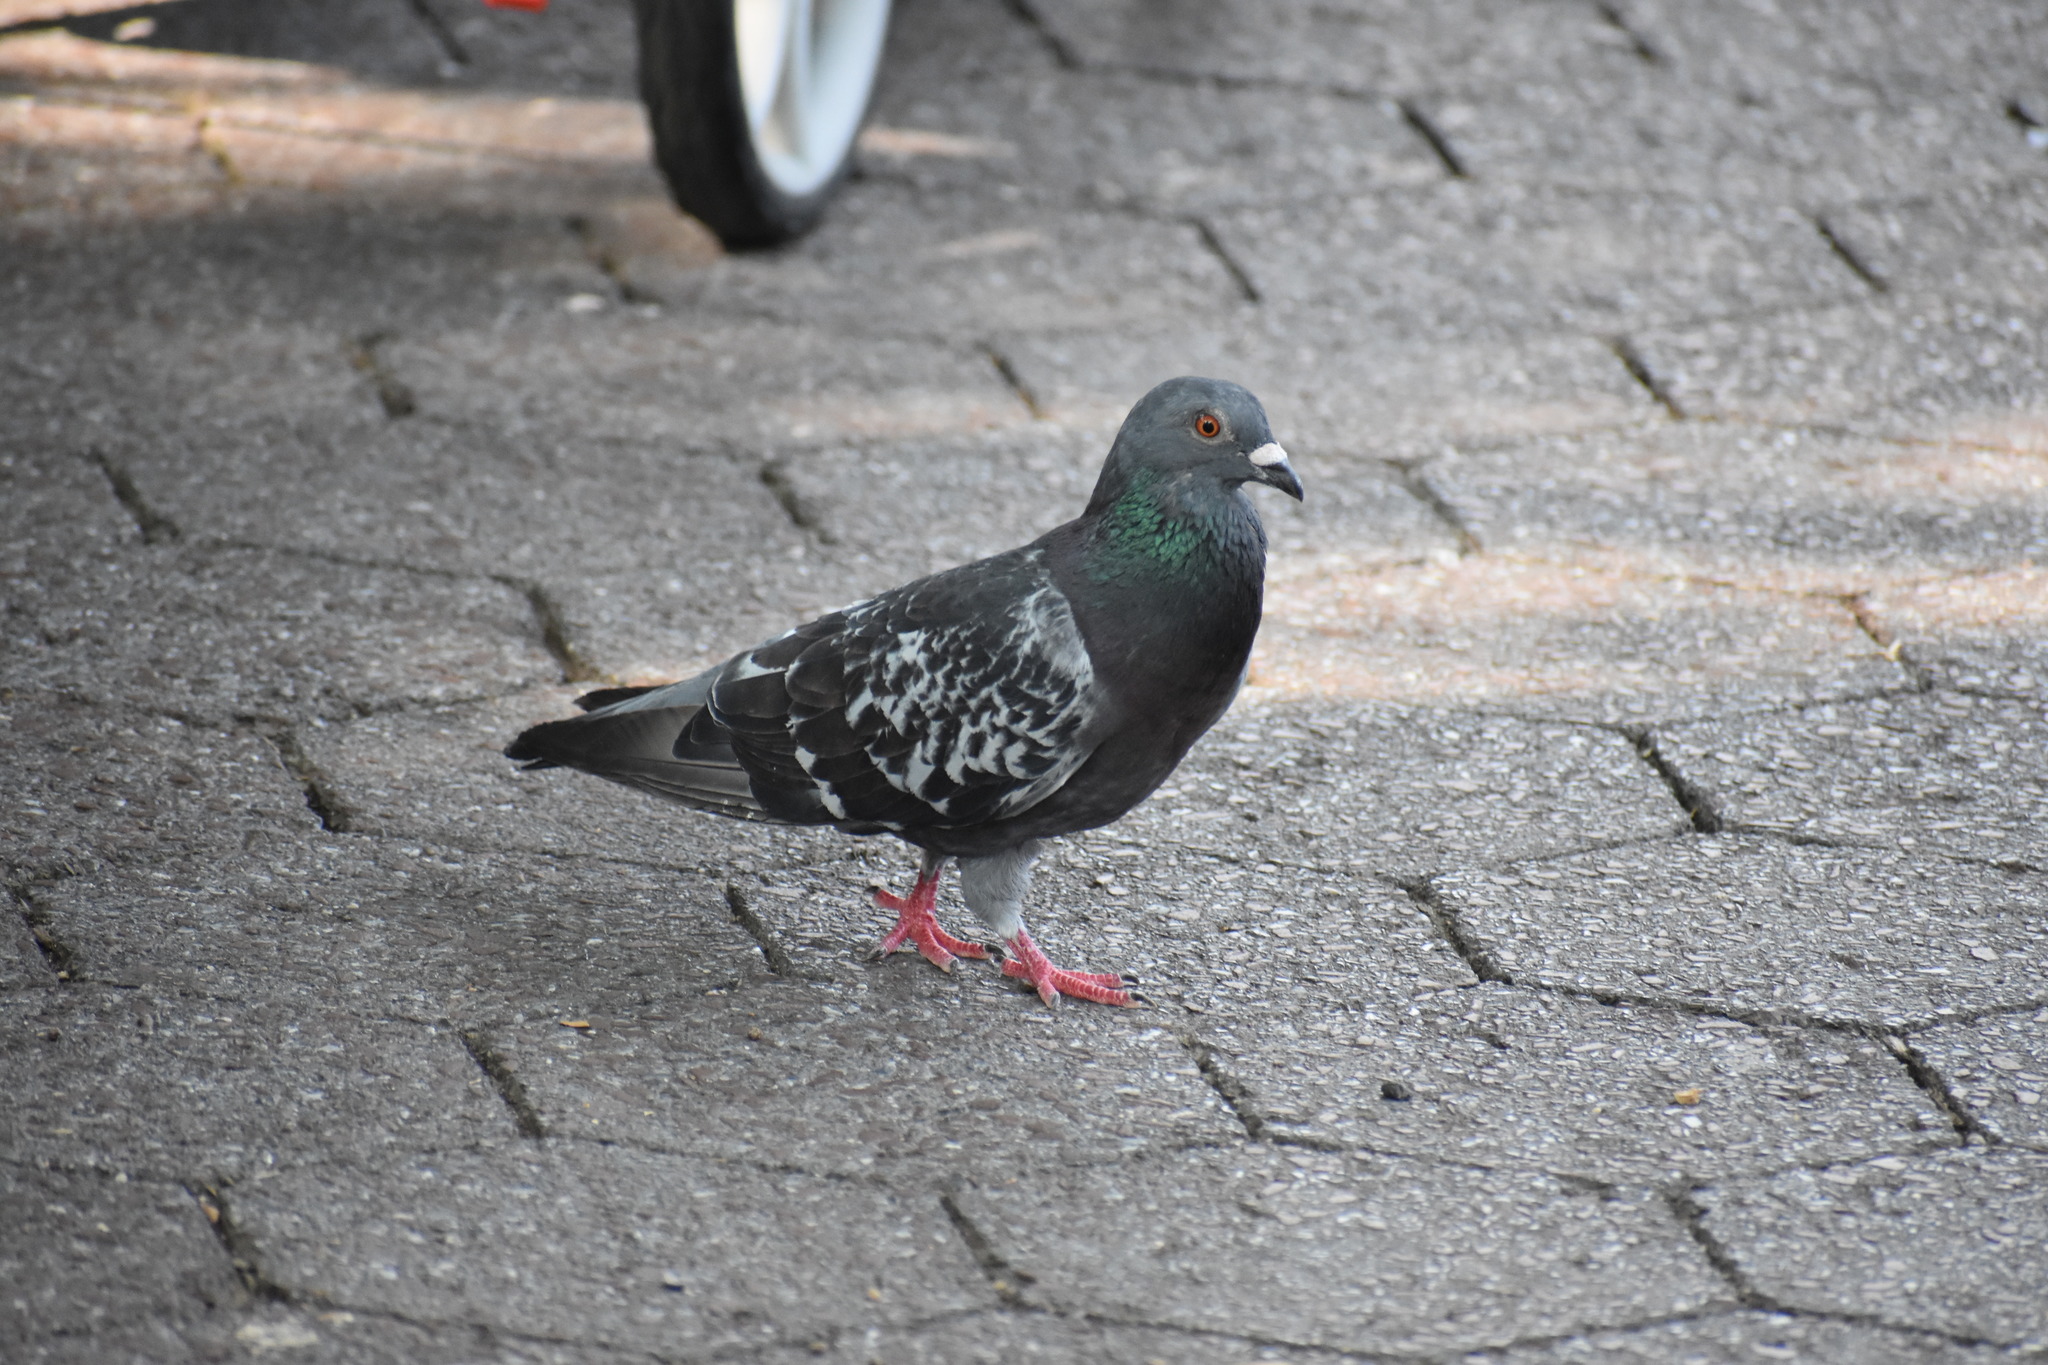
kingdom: Animalia
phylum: Chordata
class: Aves
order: Columbiformes
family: Columbidae
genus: Columba
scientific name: Columba livia
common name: Rock pigeon
